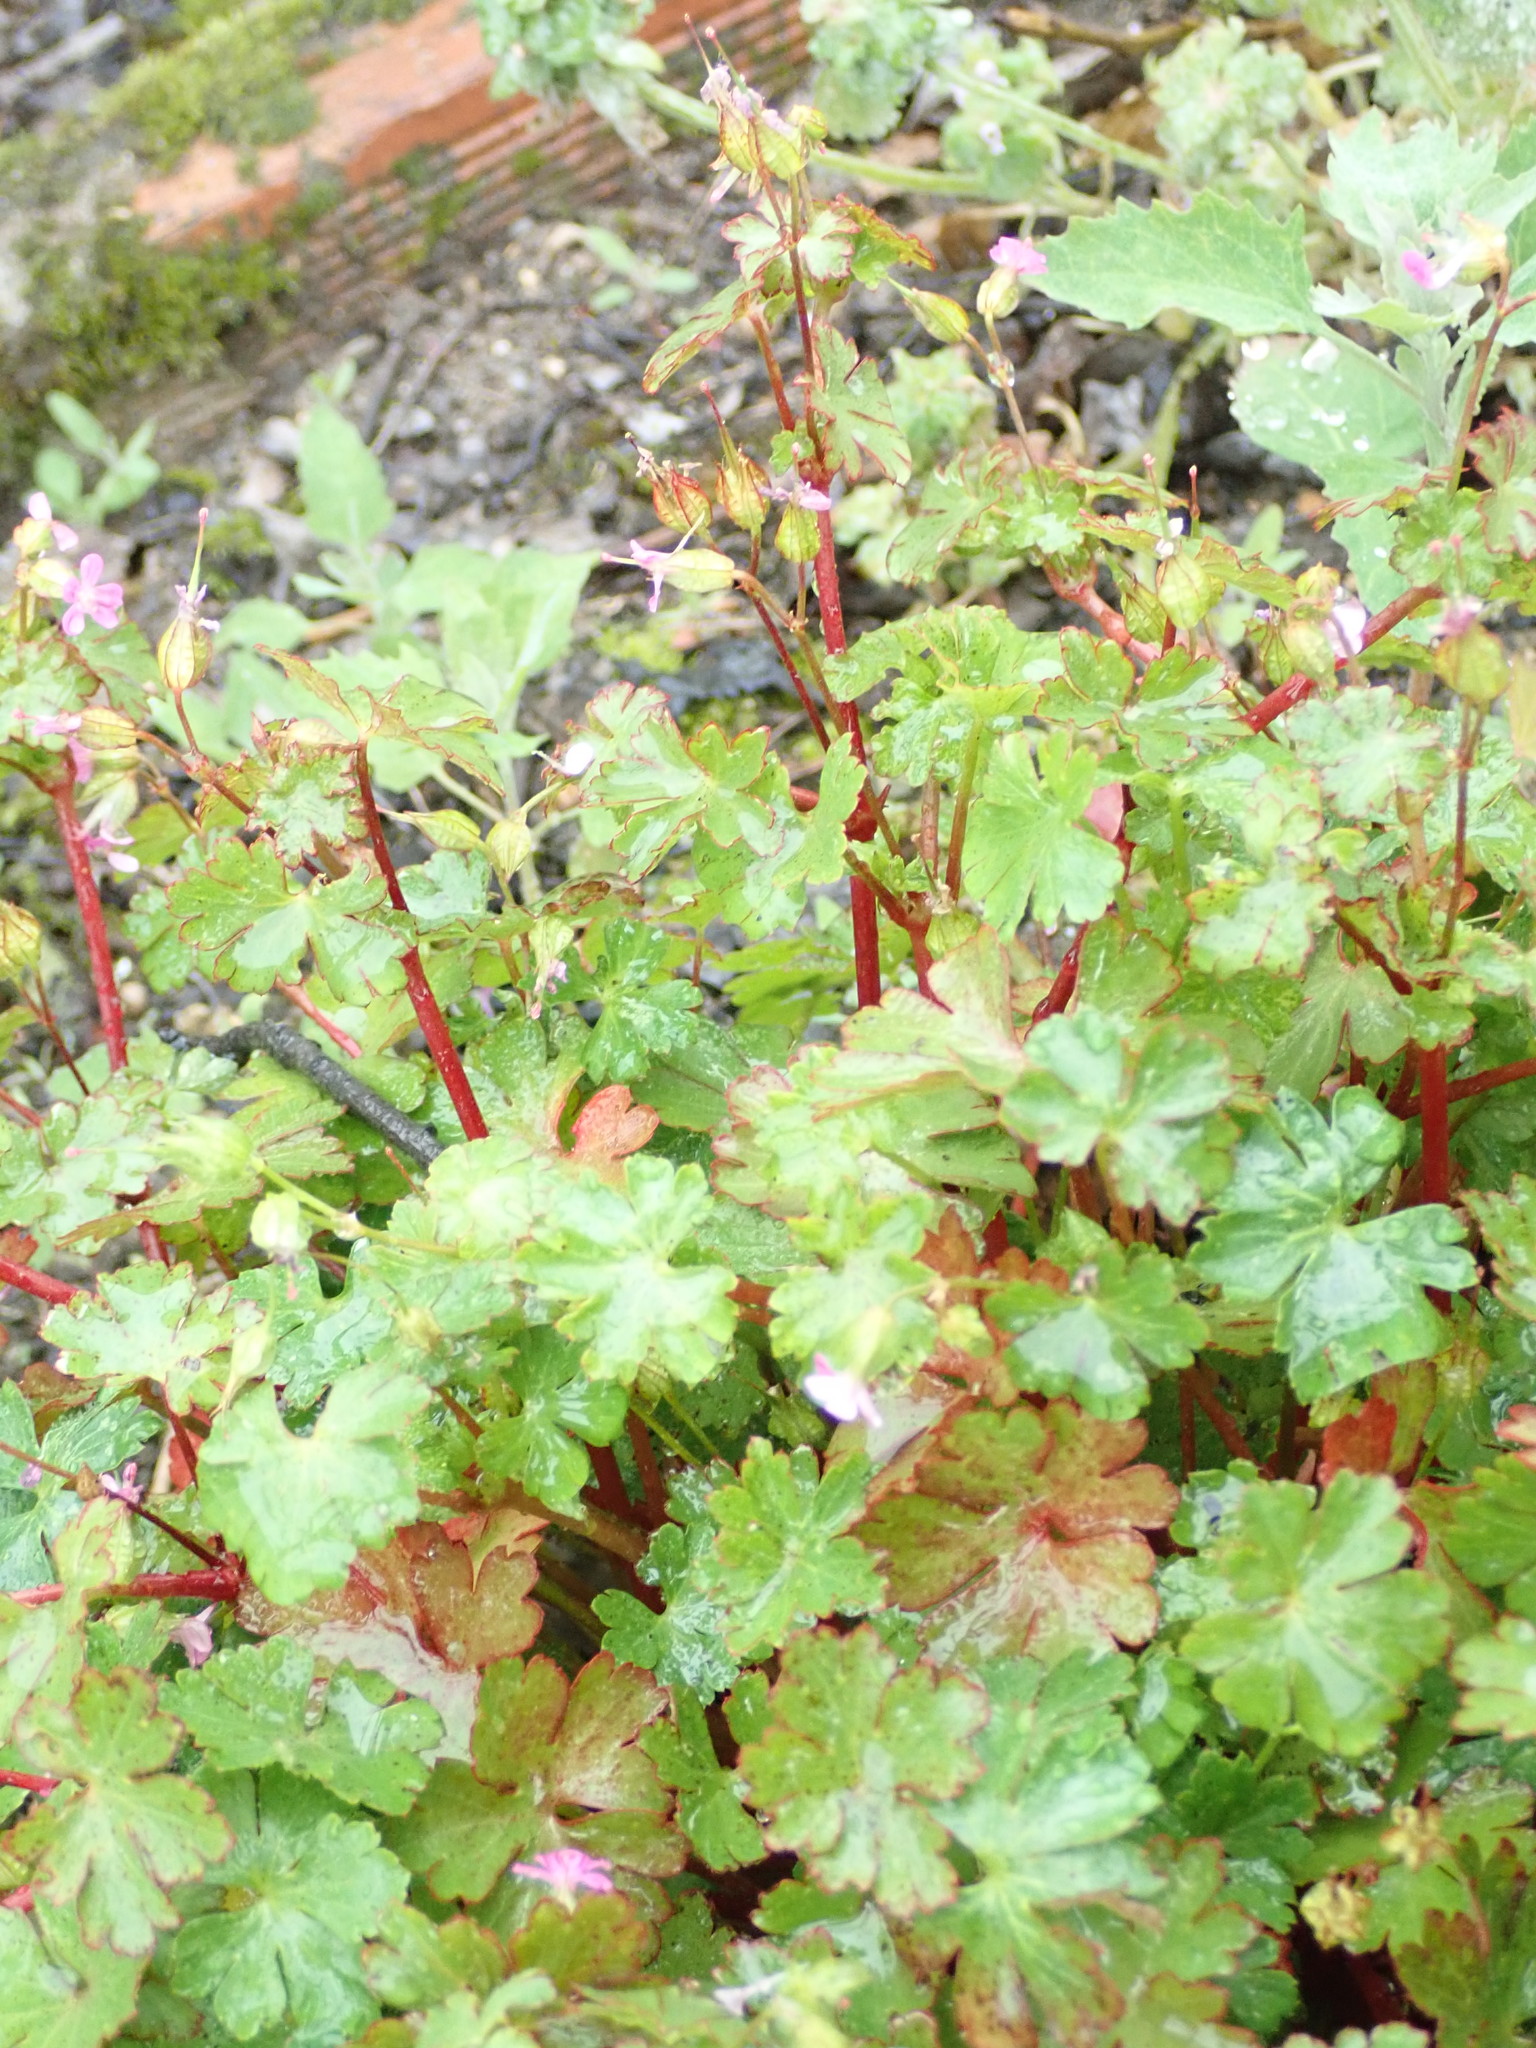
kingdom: Plantae
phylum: Tracheophyta
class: Magnoliopsida
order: Geraniales
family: Geraniaceae
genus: Geranium
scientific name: Geranium lucidum
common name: Shining crane's-bill
